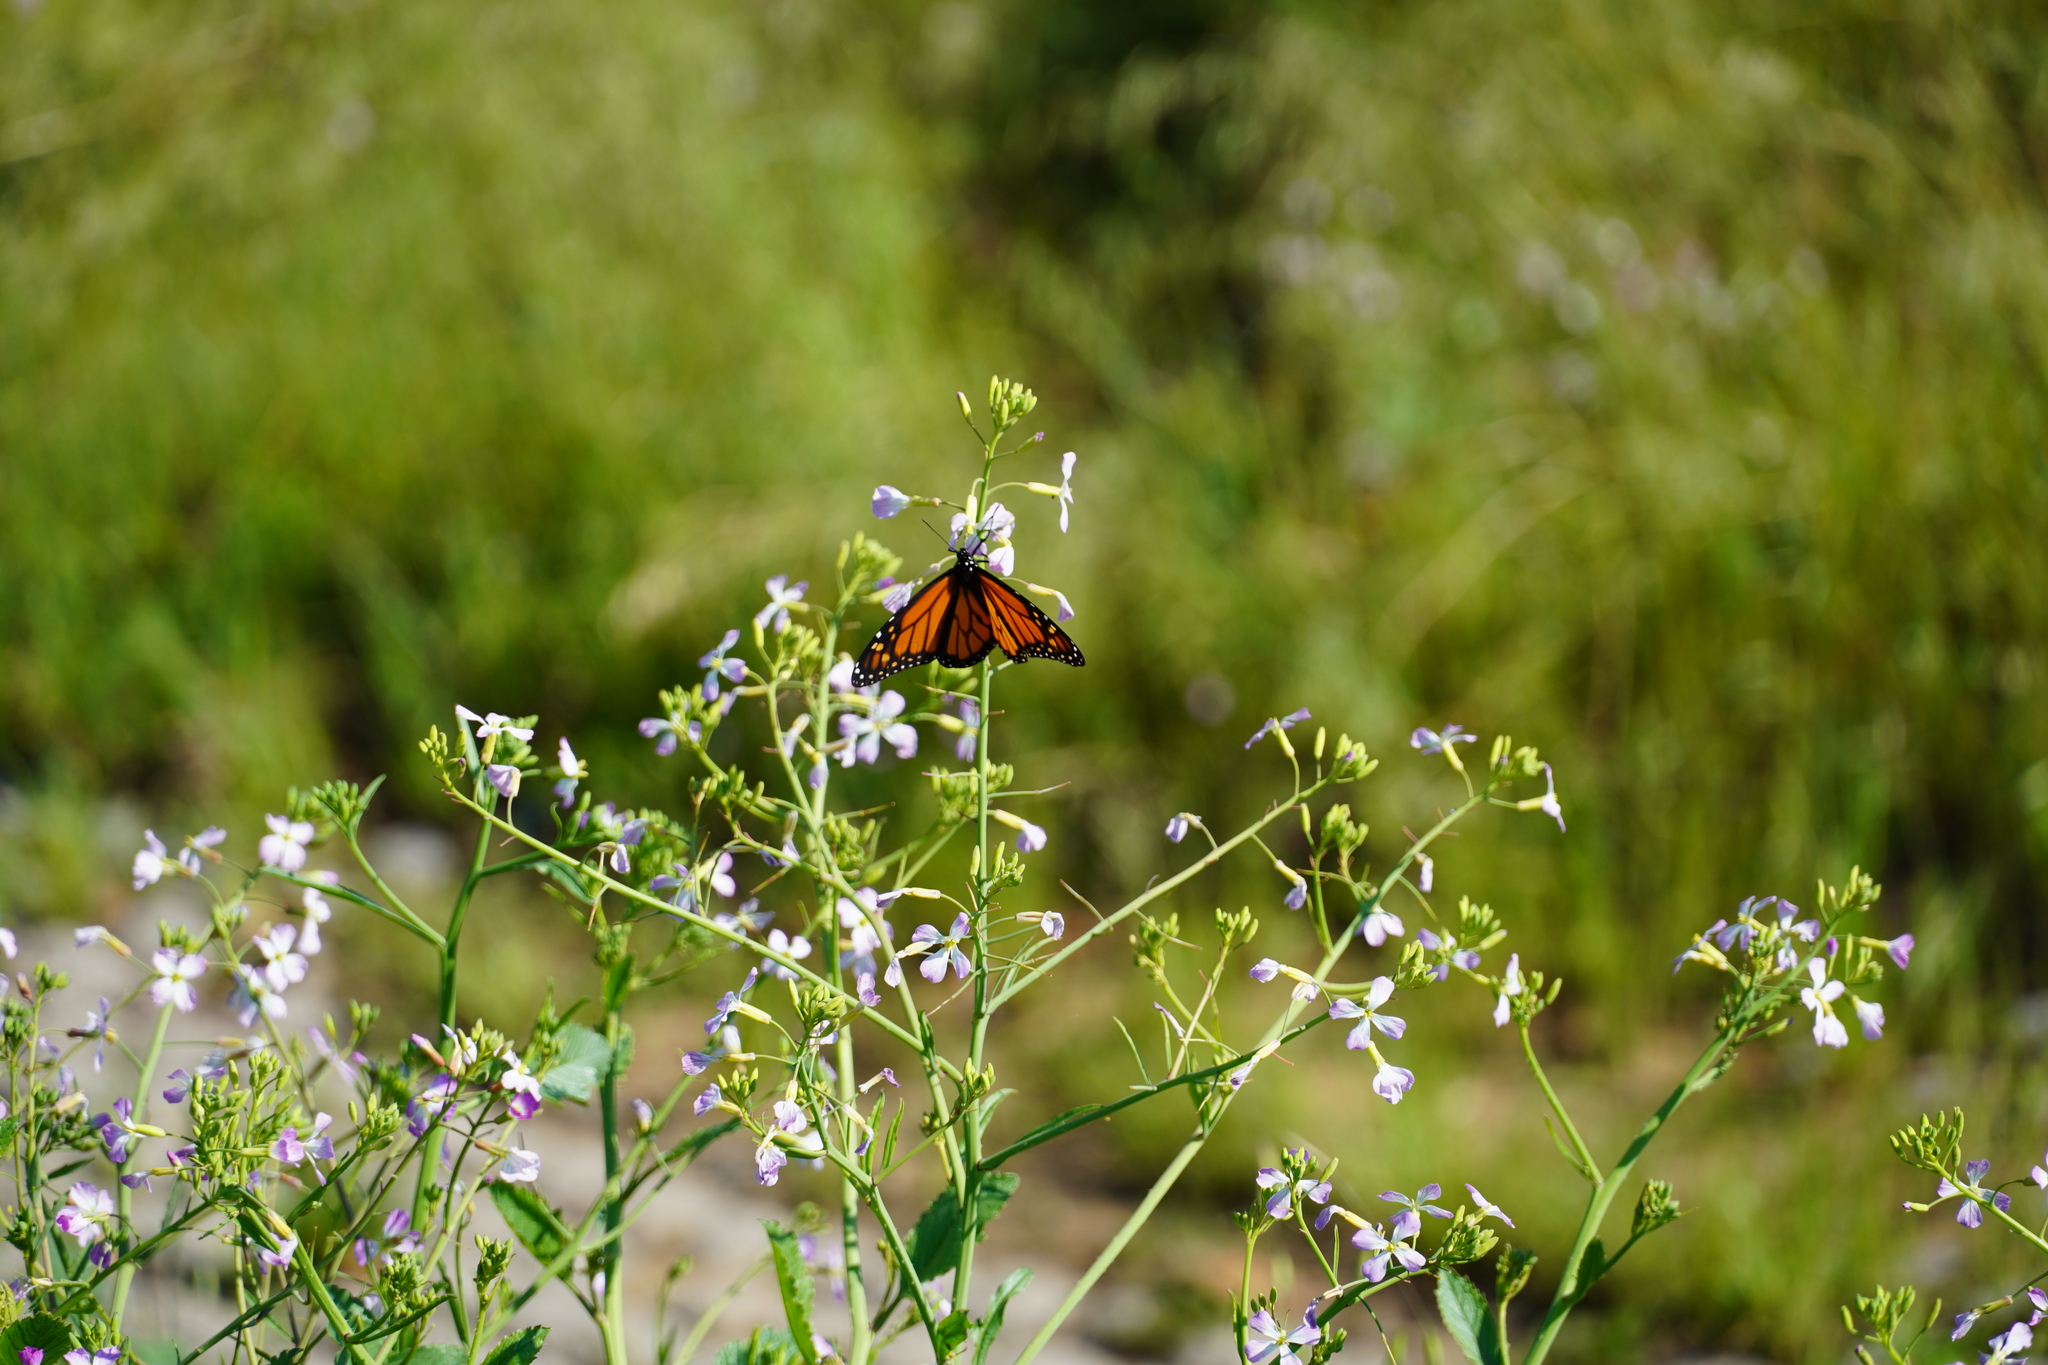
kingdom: Animalia
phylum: Arthropoda
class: Insecta
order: Lepidoptera
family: Nymphalidae
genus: Danaus
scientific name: Danaus plexippus
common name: Monarch
